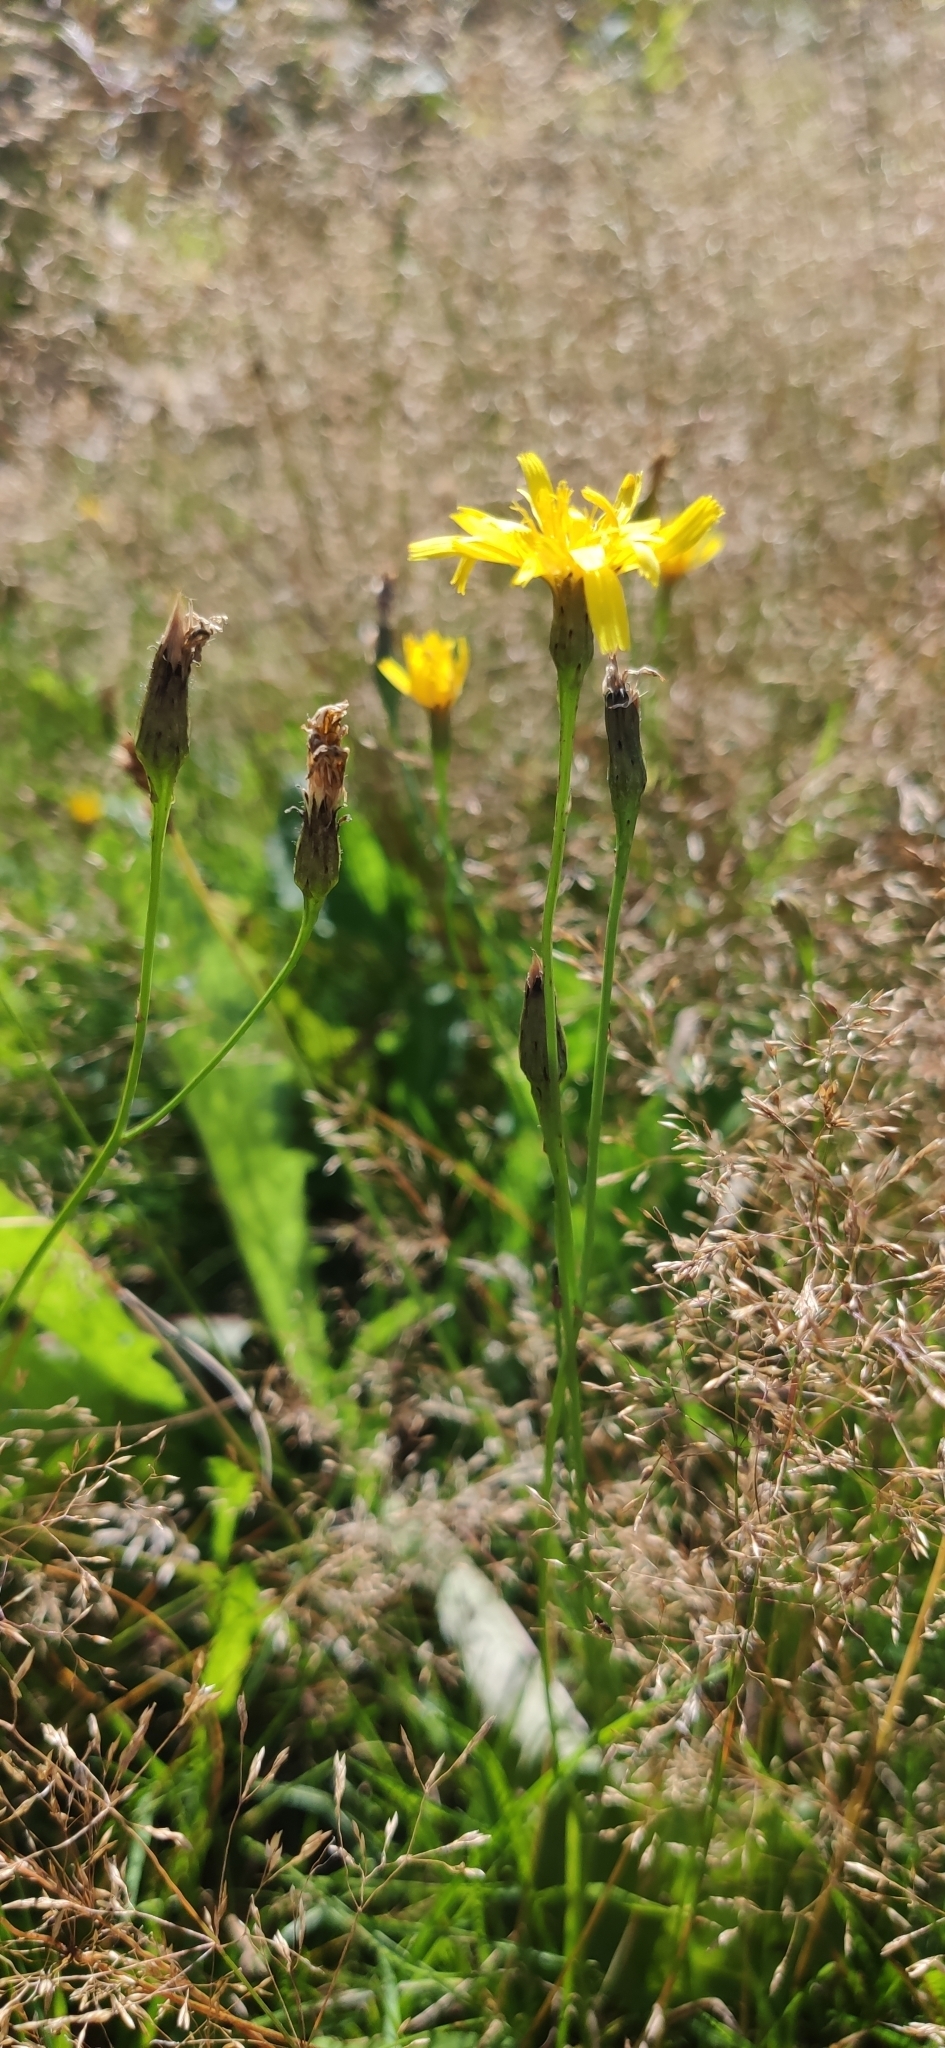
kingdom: Plantae
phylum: Tracheophyta
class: Magnoliopsida
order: Asterales
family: Asteraceae
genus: Scorzoneroides
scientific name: Scorzoneroides autumnalis
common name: Autumn hawkbit
